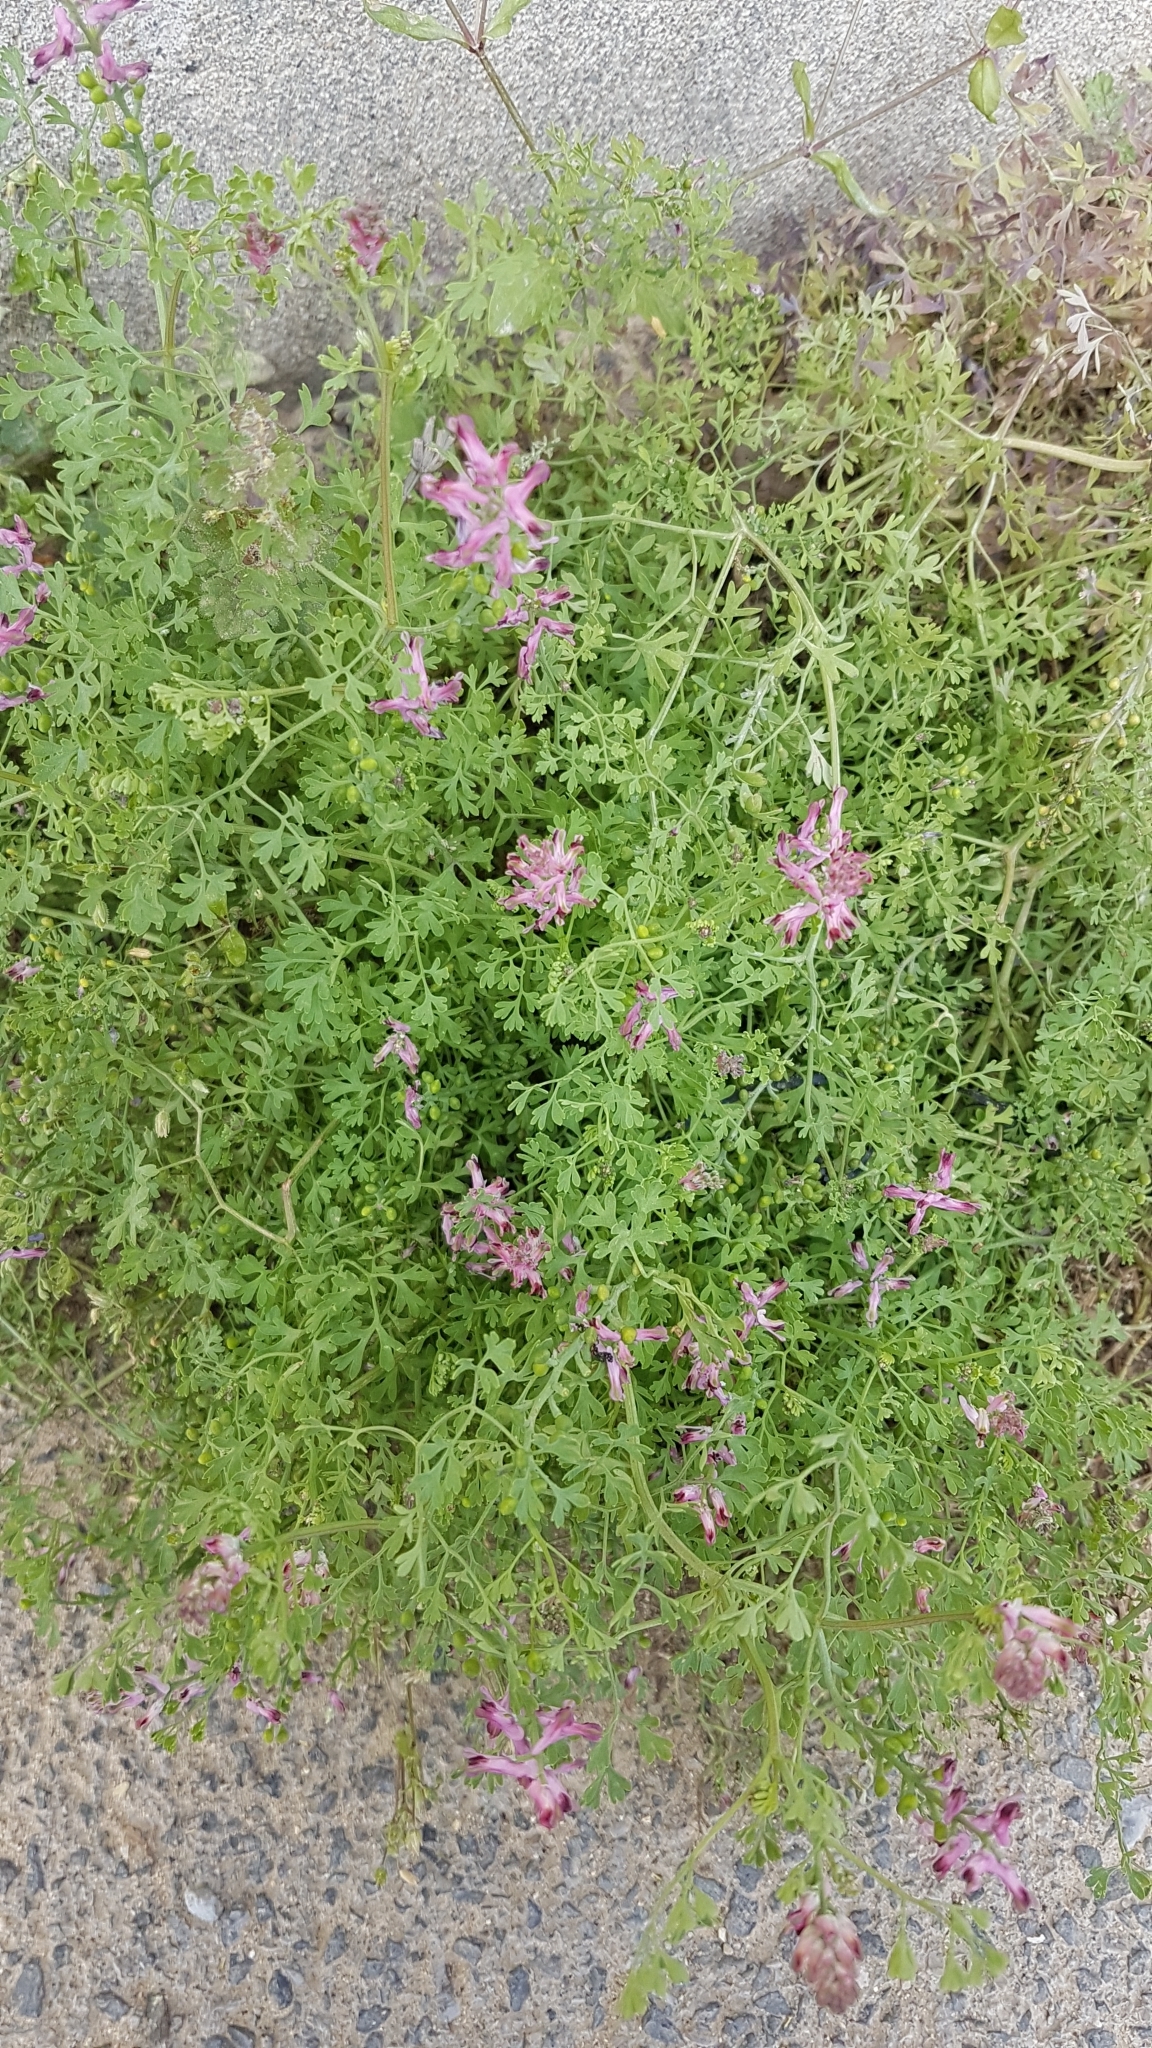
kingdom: Plantae
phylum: Tracheophyta
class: Magnoliopsida
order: Ranunculales
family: Papaveraceae
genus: Fumaria
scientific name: Fumaria officinalis
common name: Common fumitory
